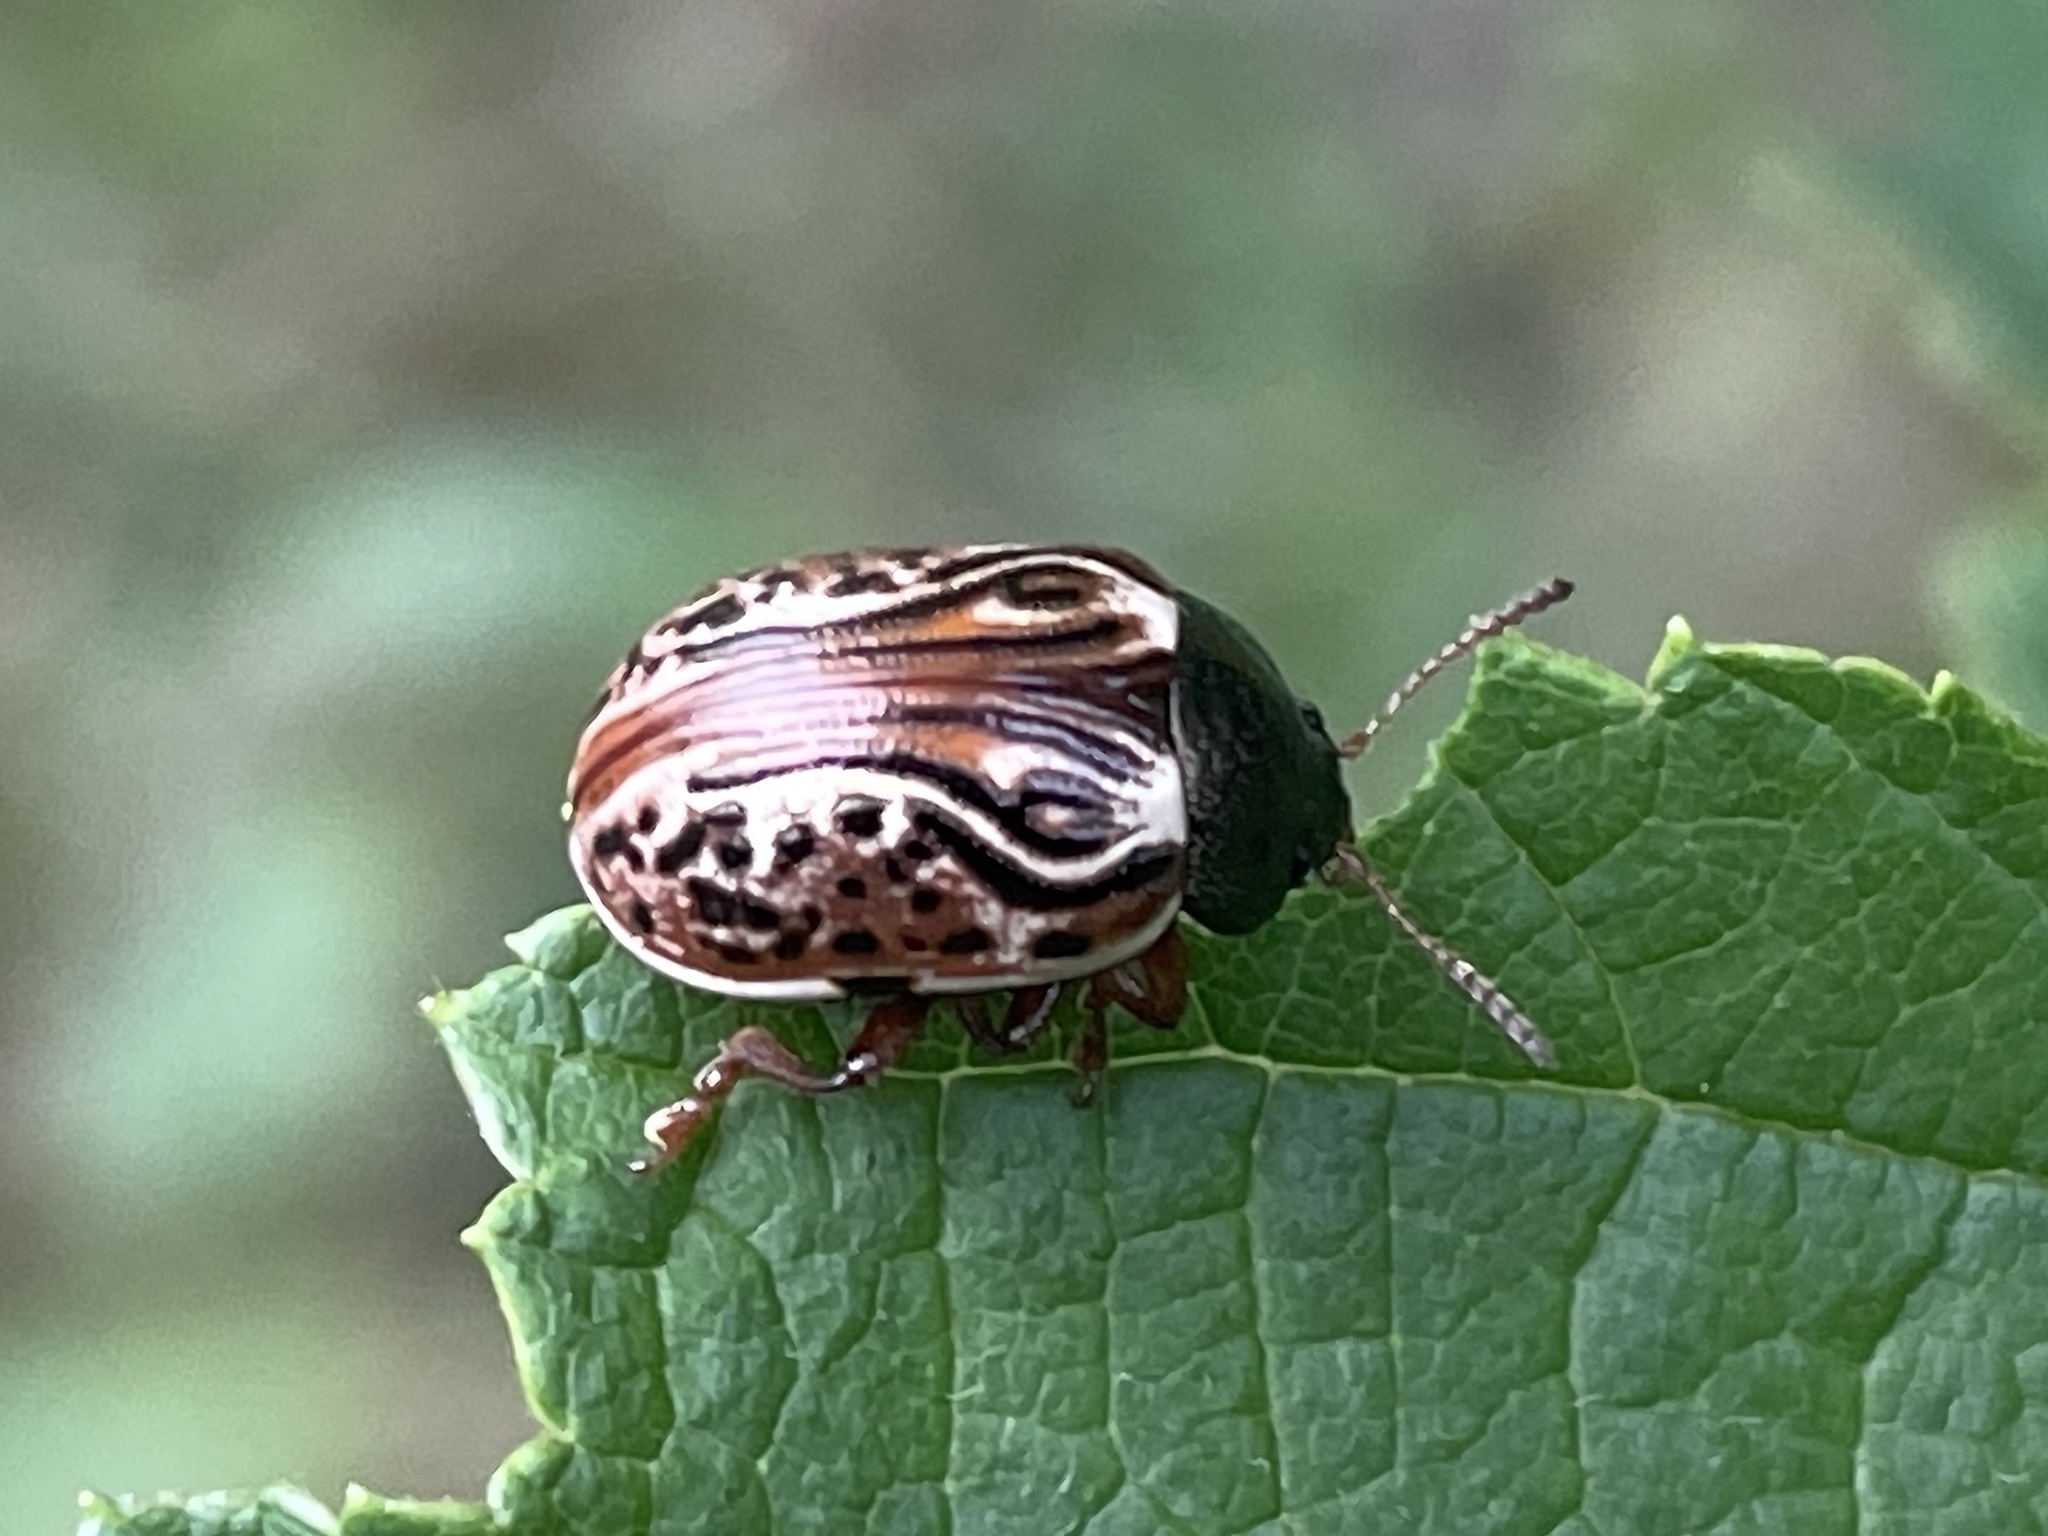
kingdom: Animalia
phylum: Arthropoda
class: Insecta
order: Coleoptera
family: Chrysomelidae
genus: Calligrapha
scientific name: Calligrapha alni
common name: Russet alder leaf beetle
